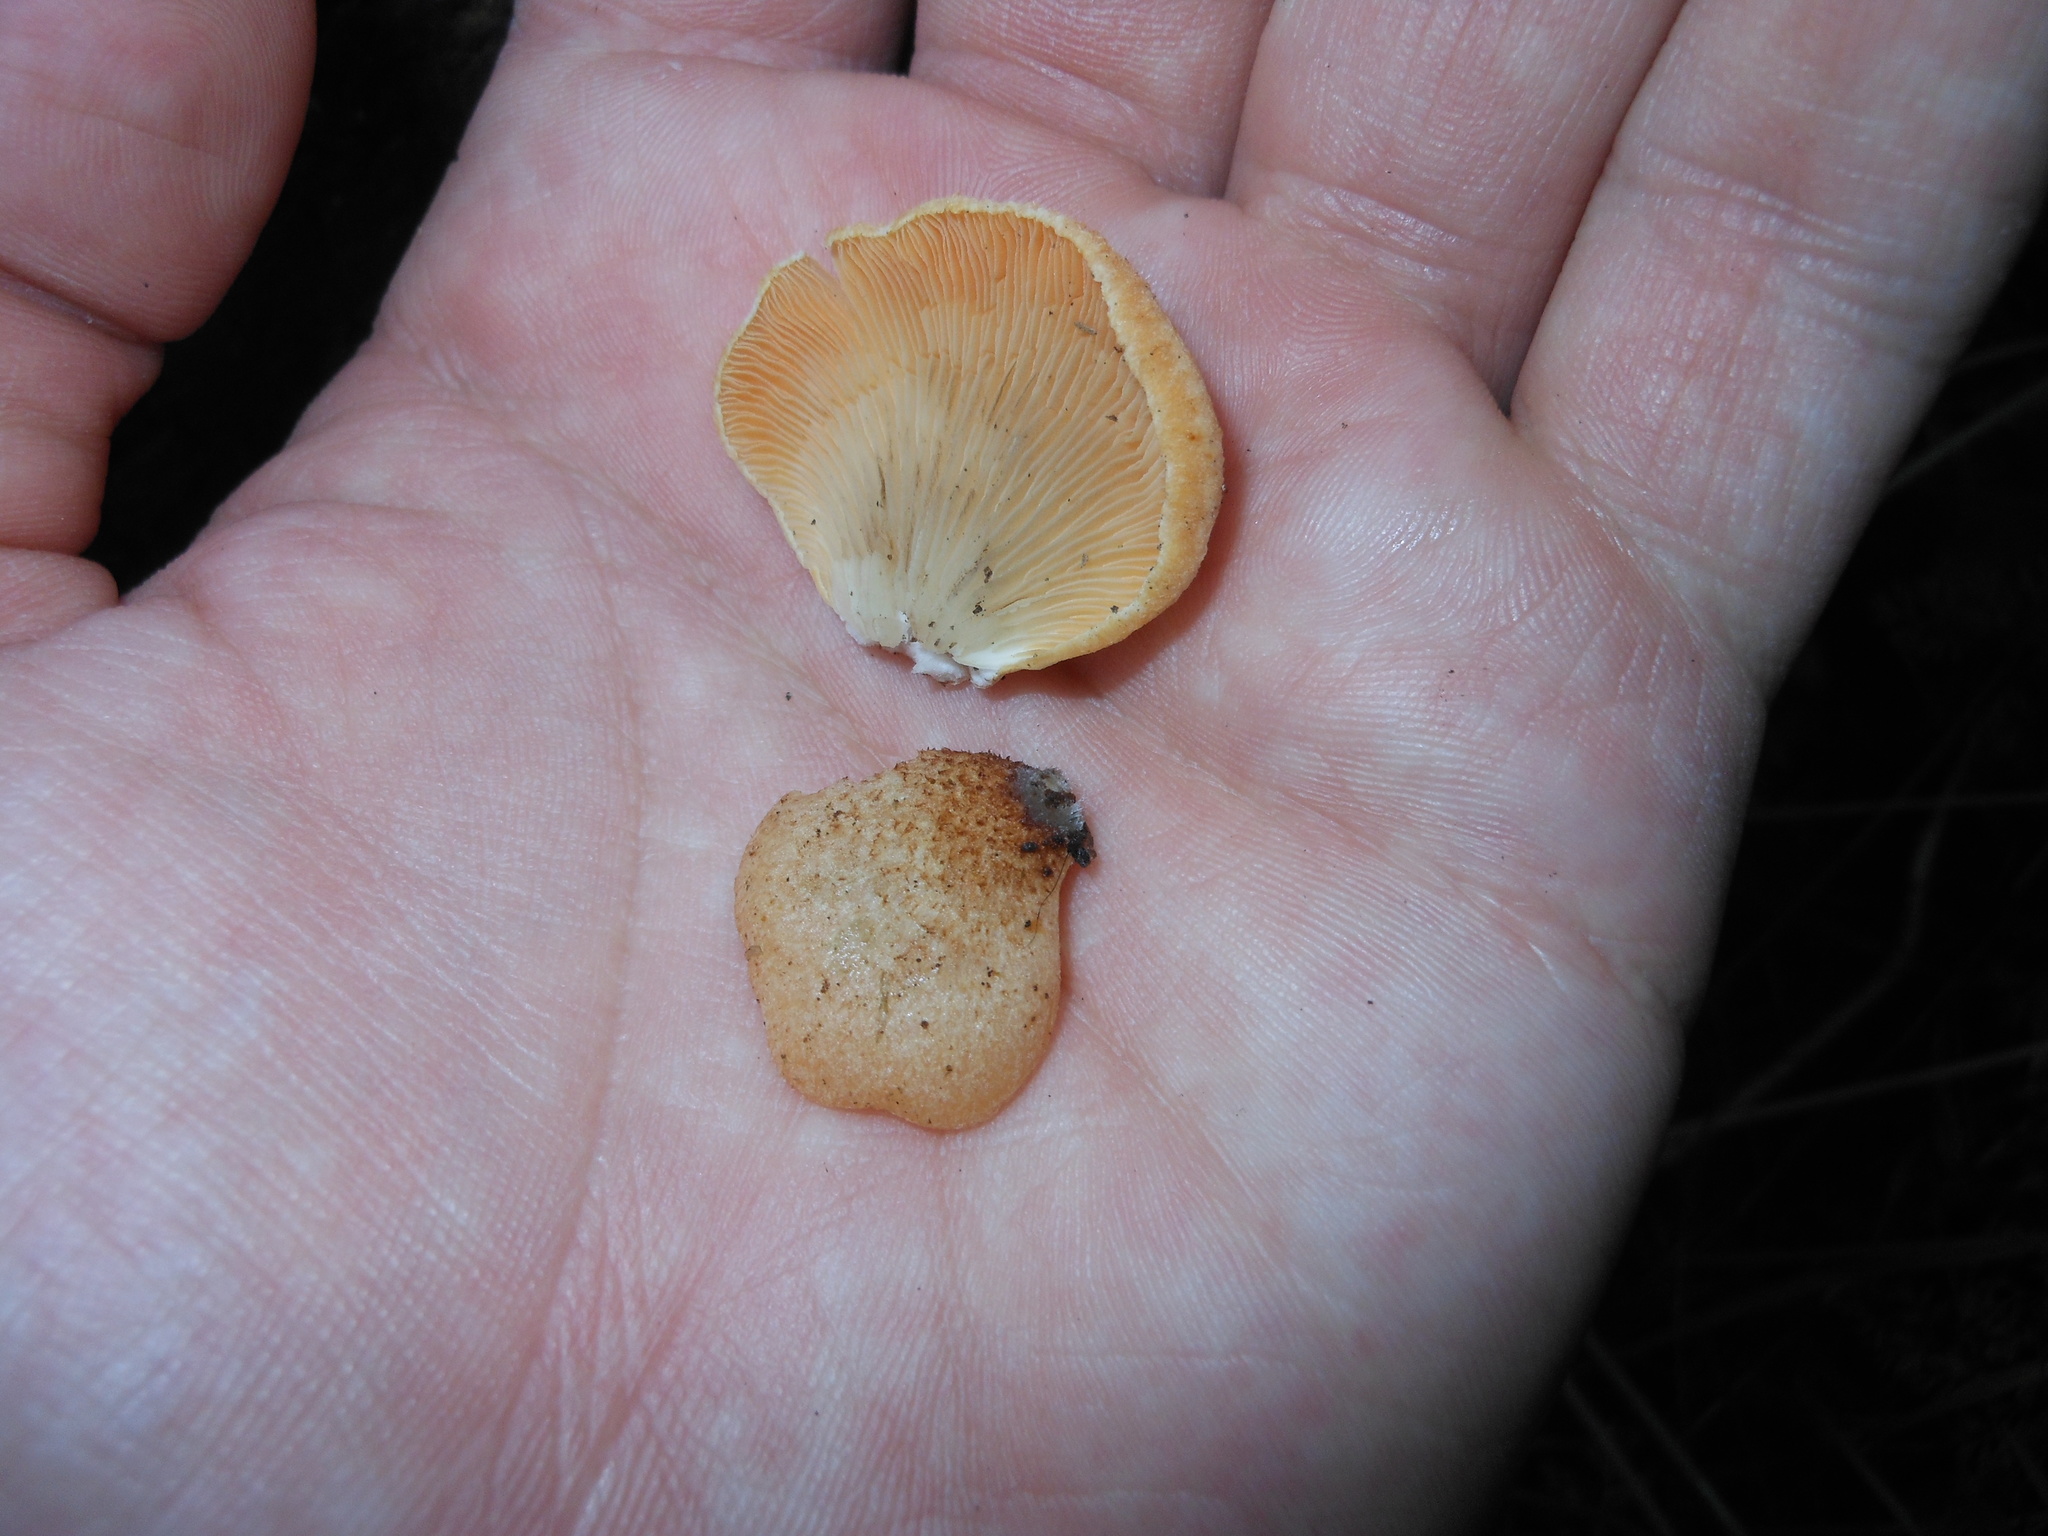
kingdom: Fungi
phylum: Basidiomycota
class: Agaricomycetes
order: Agaricales
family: Crepidotaceae
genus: Crepidotus
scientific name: Crepidotus crocophyllus
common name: Saffron oysterling
